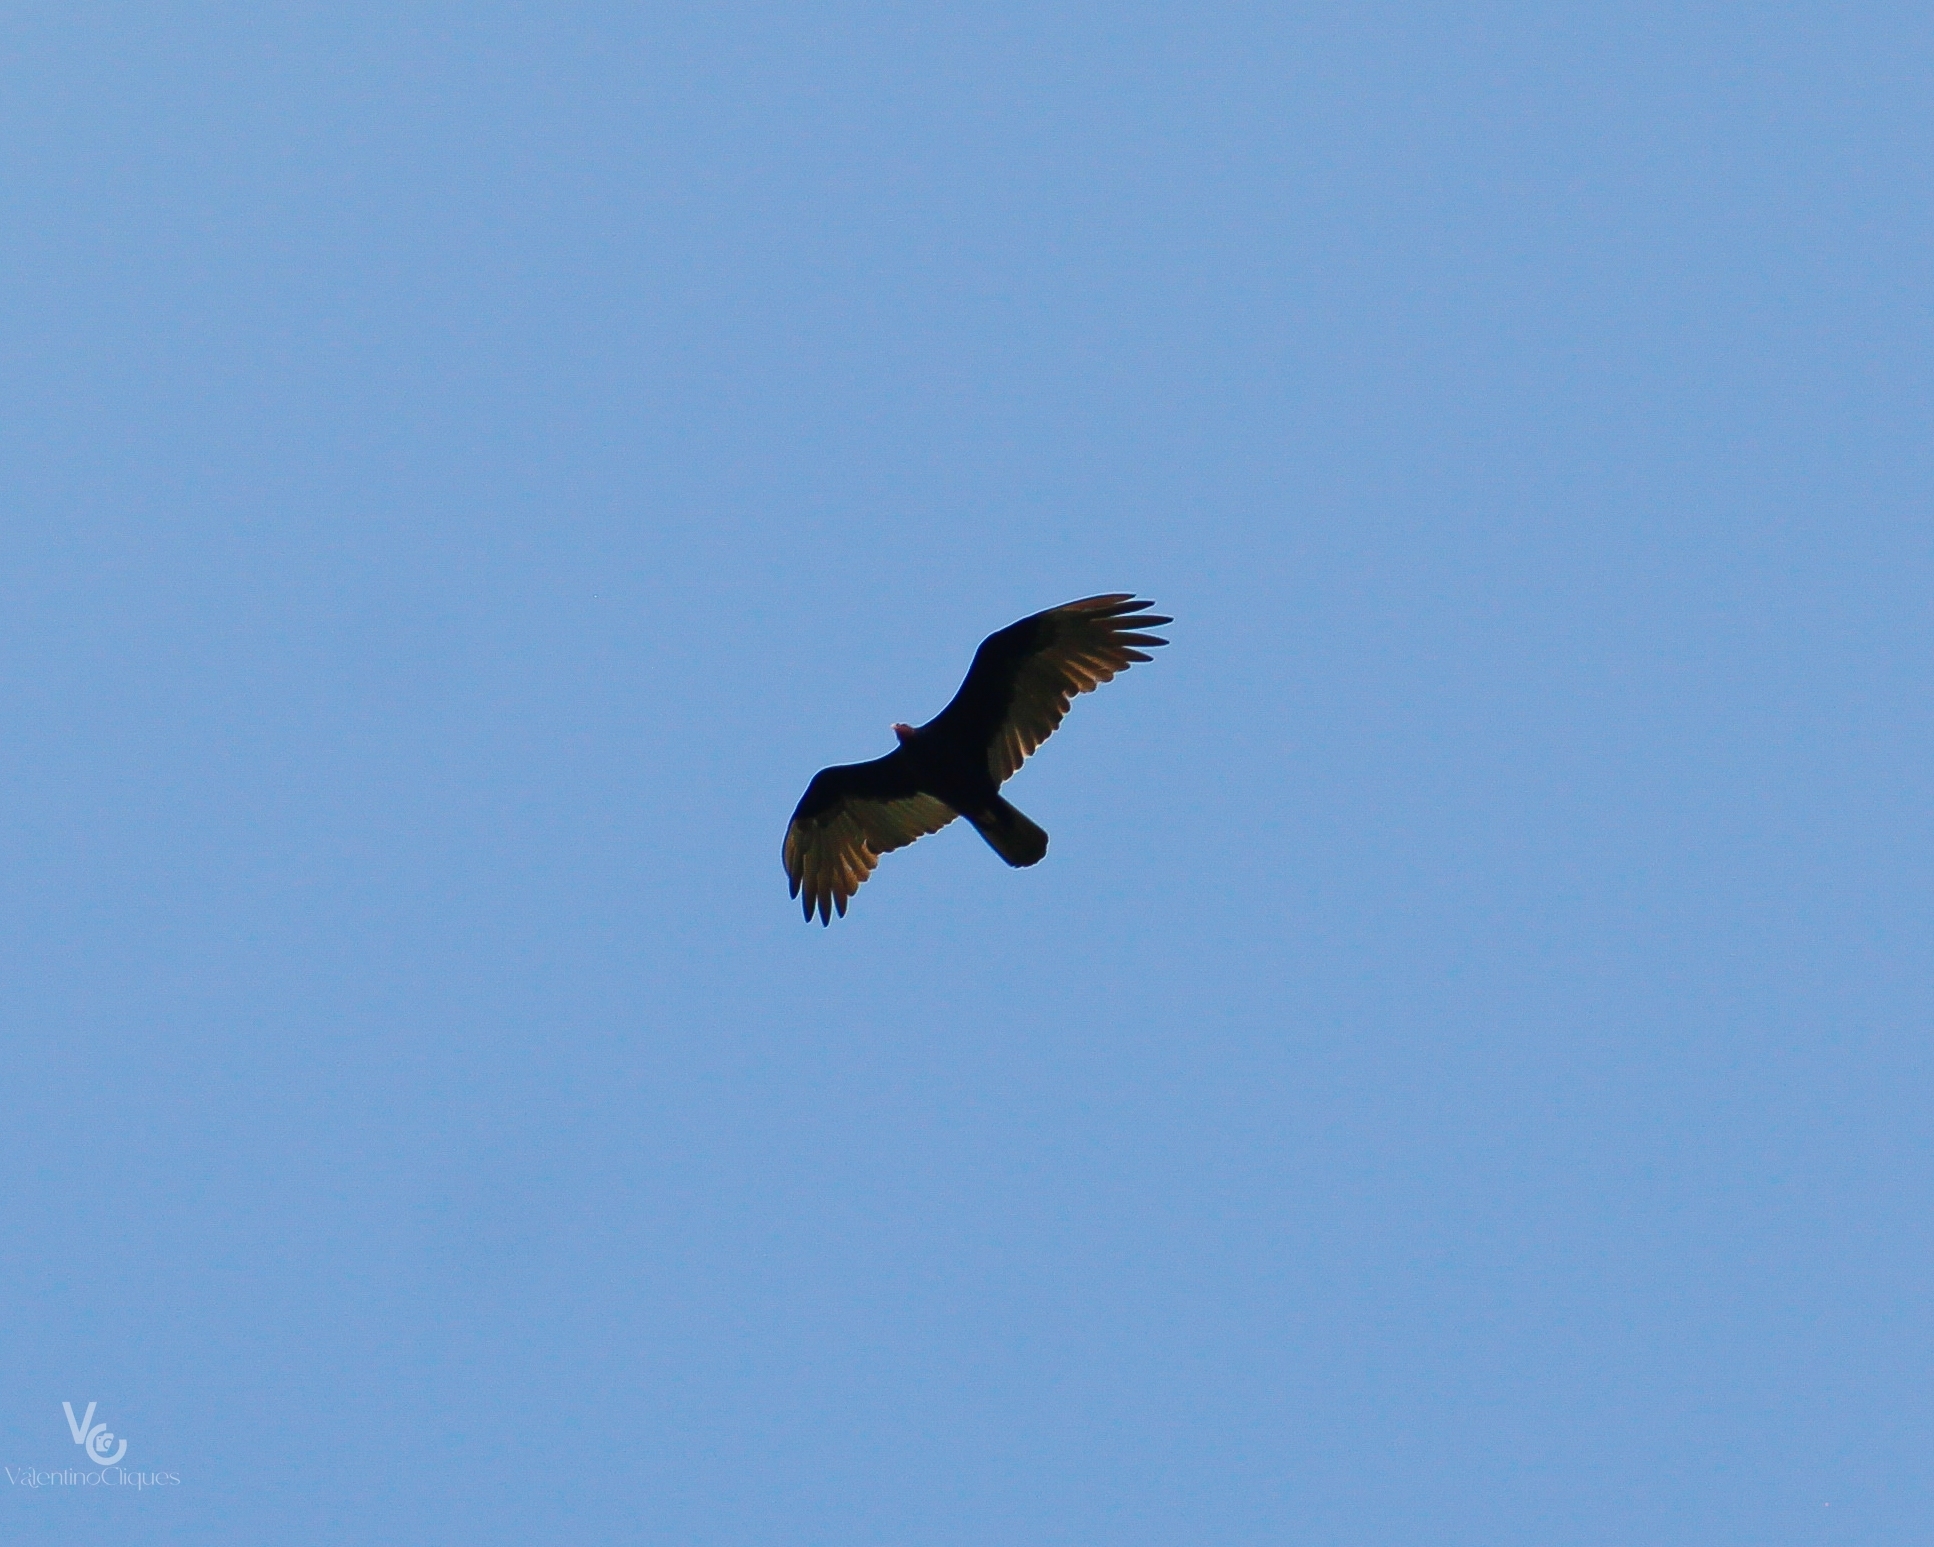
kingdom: Animalia
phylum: Chordata
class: Aves
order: Accipitriformes
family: Cathartidae
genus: Cathartes
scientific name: Cathartes aura
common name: Turkey vulture
